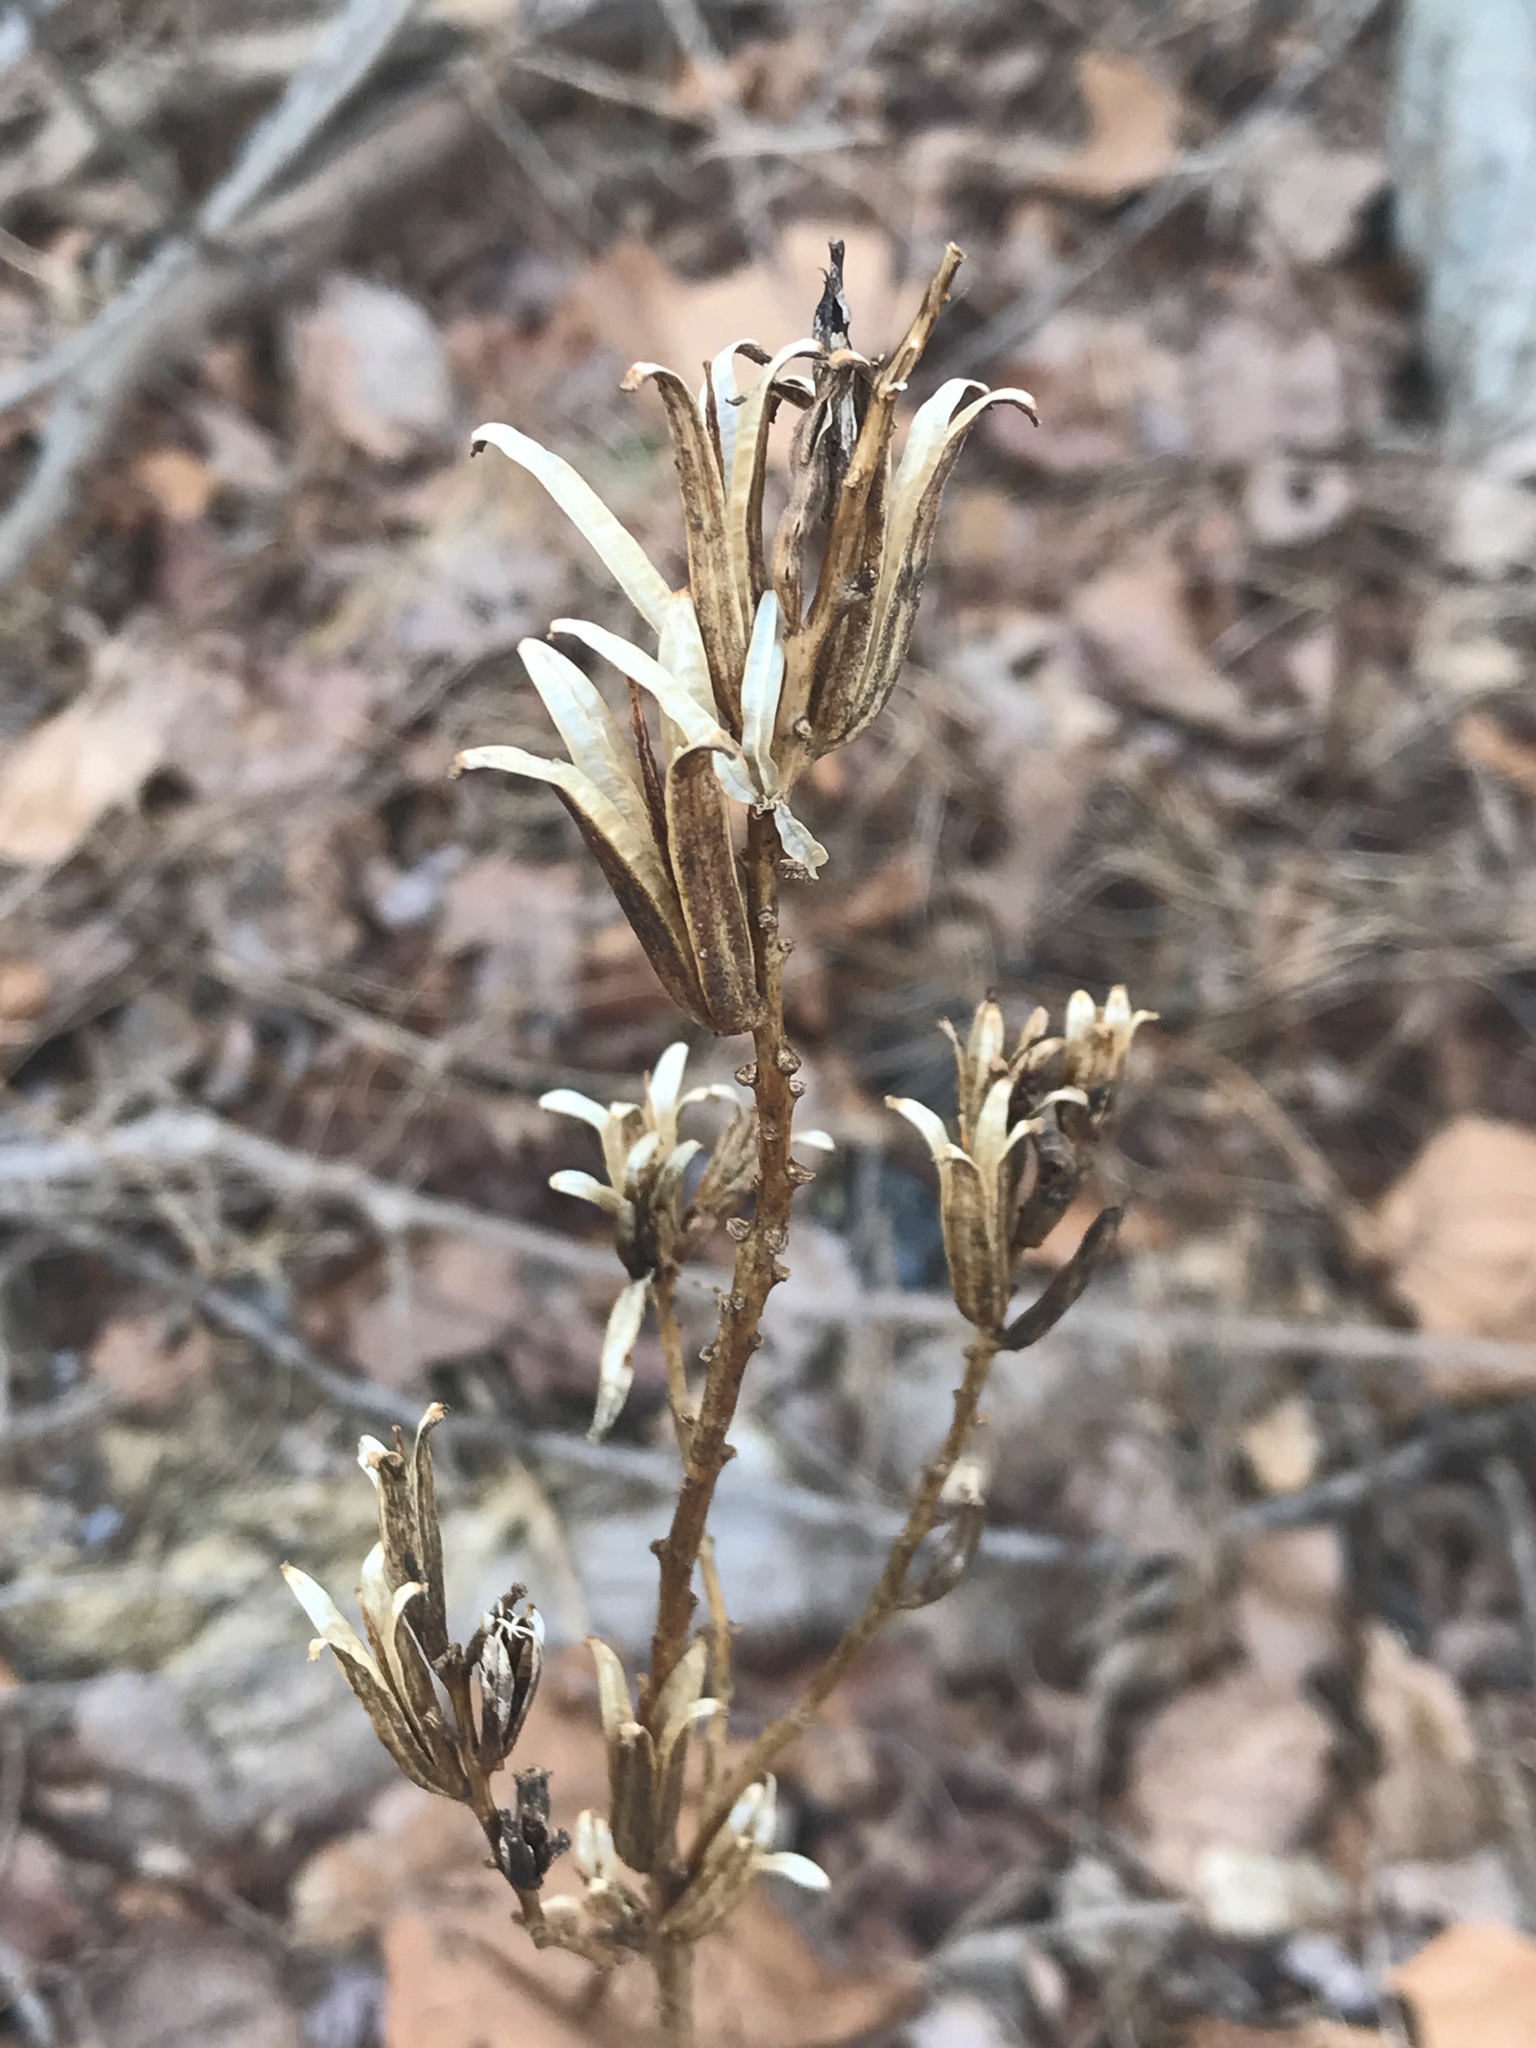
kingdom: Plantae
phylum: Tracheophyta
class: Magnoliopsida
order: Myrtales
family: Onagraceae
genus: Oenothera
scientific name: Oenothera biennis
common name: Common evening-primrose
